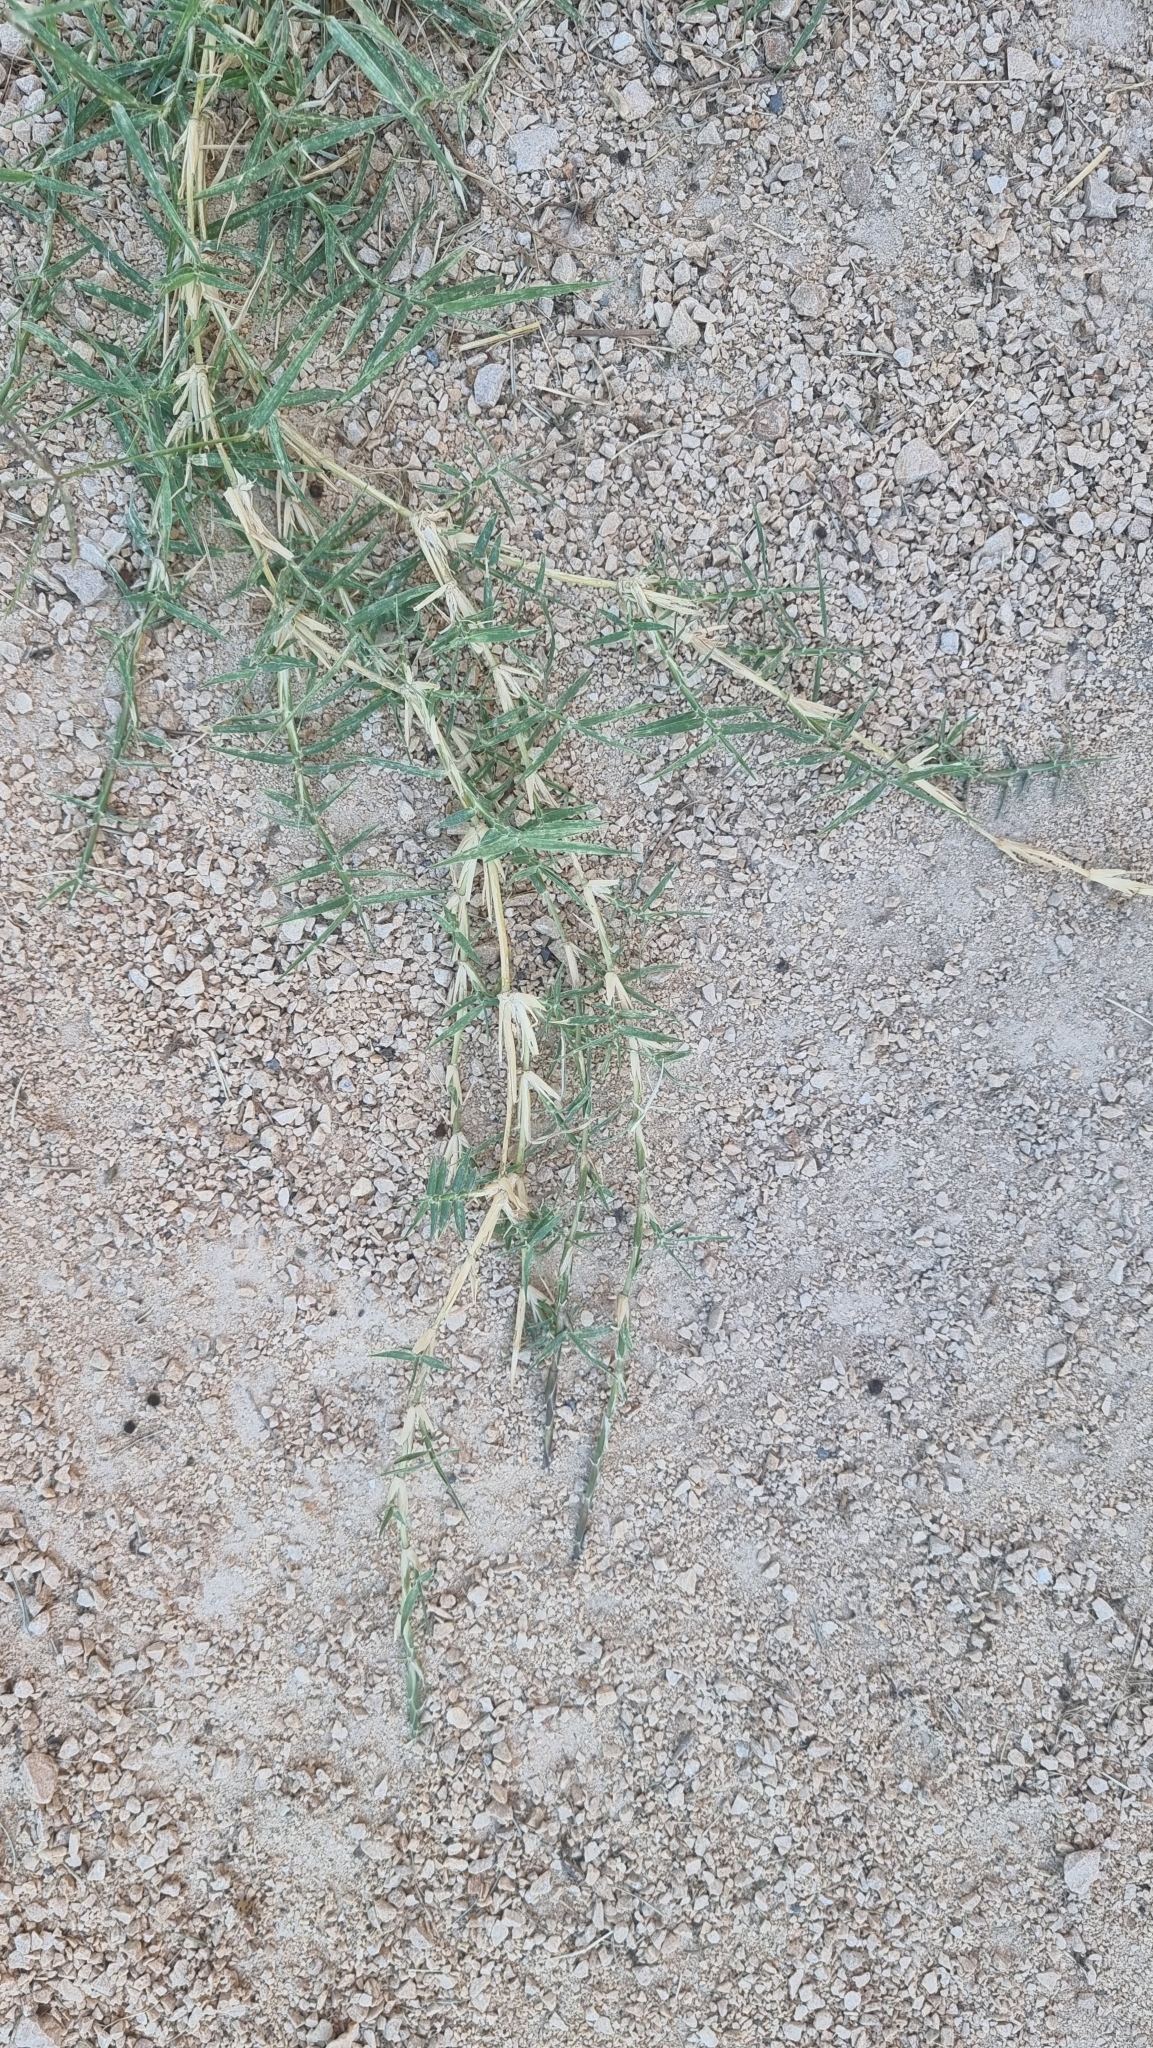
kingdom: Plantae
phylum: Tracheophyta
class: Liliopsida
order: Poales
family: Poaceae
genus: Cynodon
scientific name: Cynodon dactylon
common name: Bermuda grass
